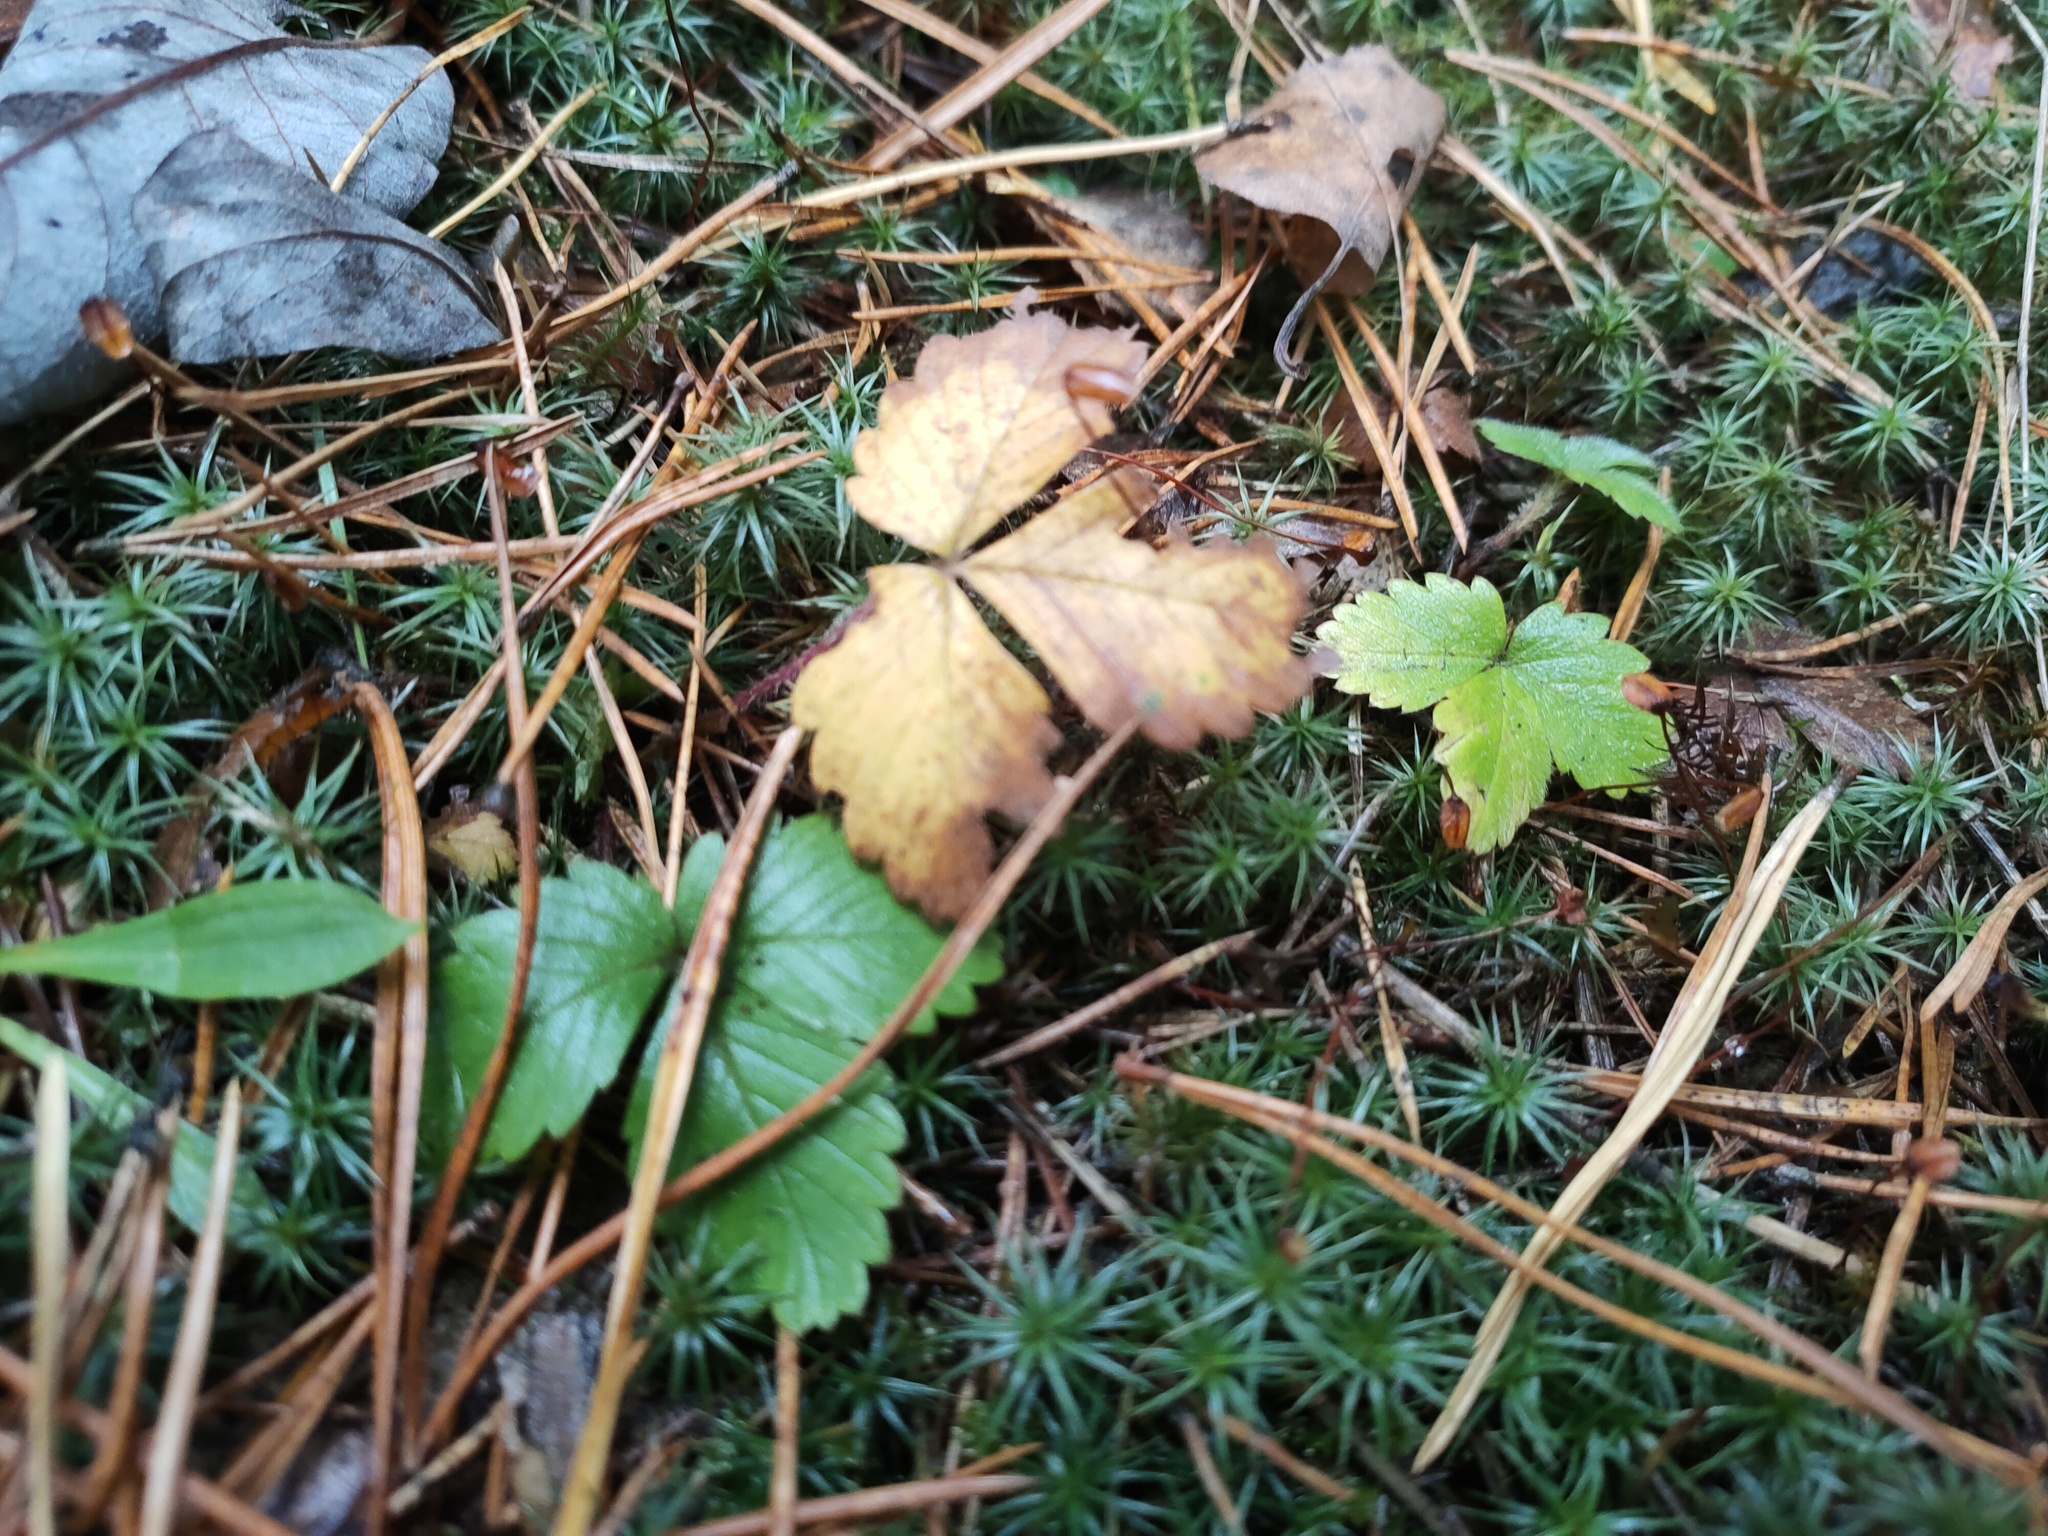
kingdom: Plantae
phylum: Tracheophyta
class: Magnoliopsida
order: Rosales
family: Rosaceae
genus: Fragaria
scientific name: Fragaria vesca
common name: Wild strawberry
